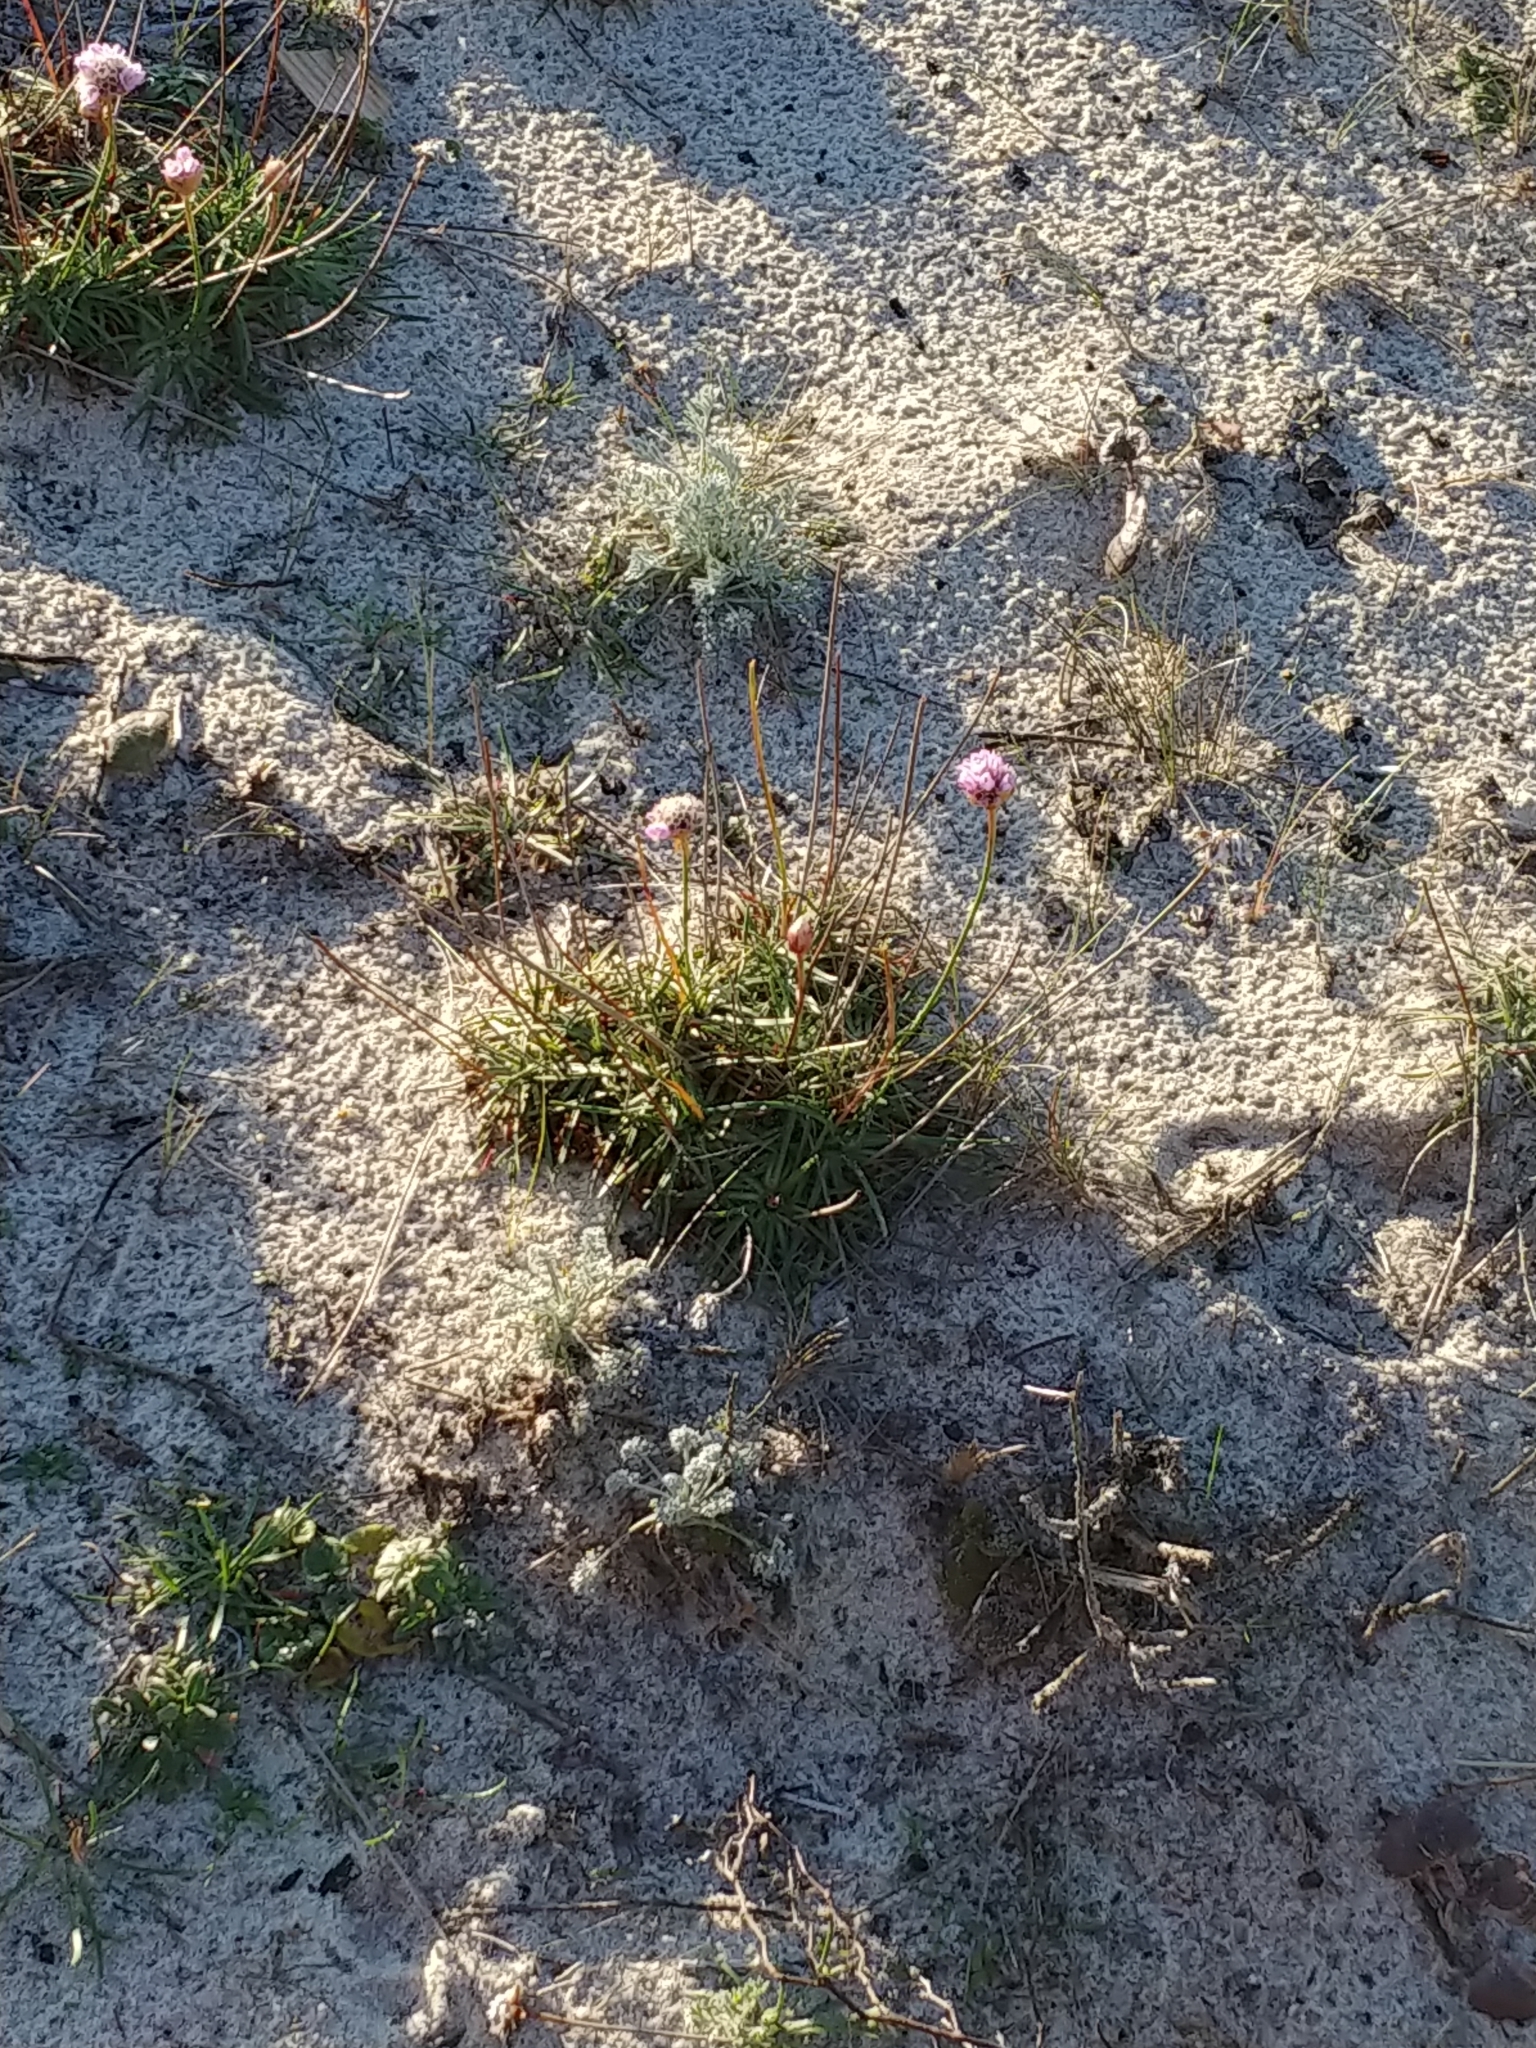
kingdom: Plantae
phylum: Tracheophyta
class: Magnoliopsida
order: Caryophyllales
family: Plumbaginaceae
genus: Armeria
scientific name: Armeria maritima
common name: Thrift
